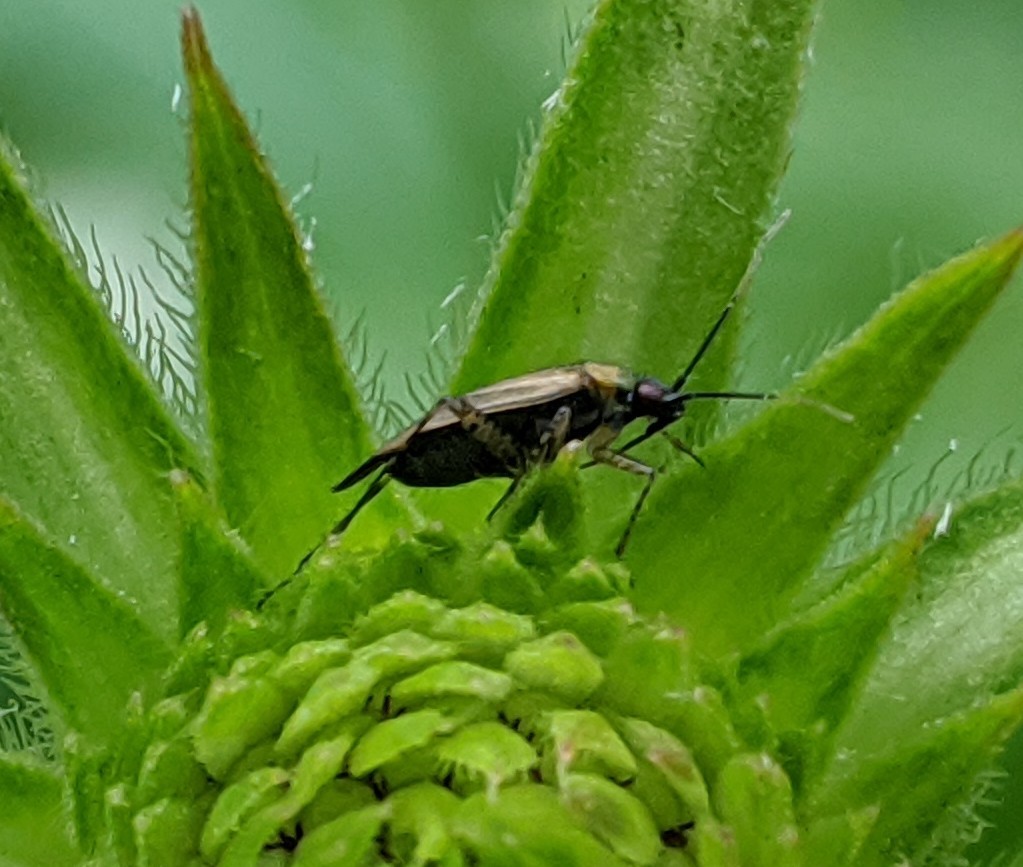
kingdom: Animalia
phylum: Arthropoda
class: Insecta
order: Hemiptera
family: Miridae
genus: Plagiognathus
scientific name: Plagiognathus arbustorum
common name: Plant bug
